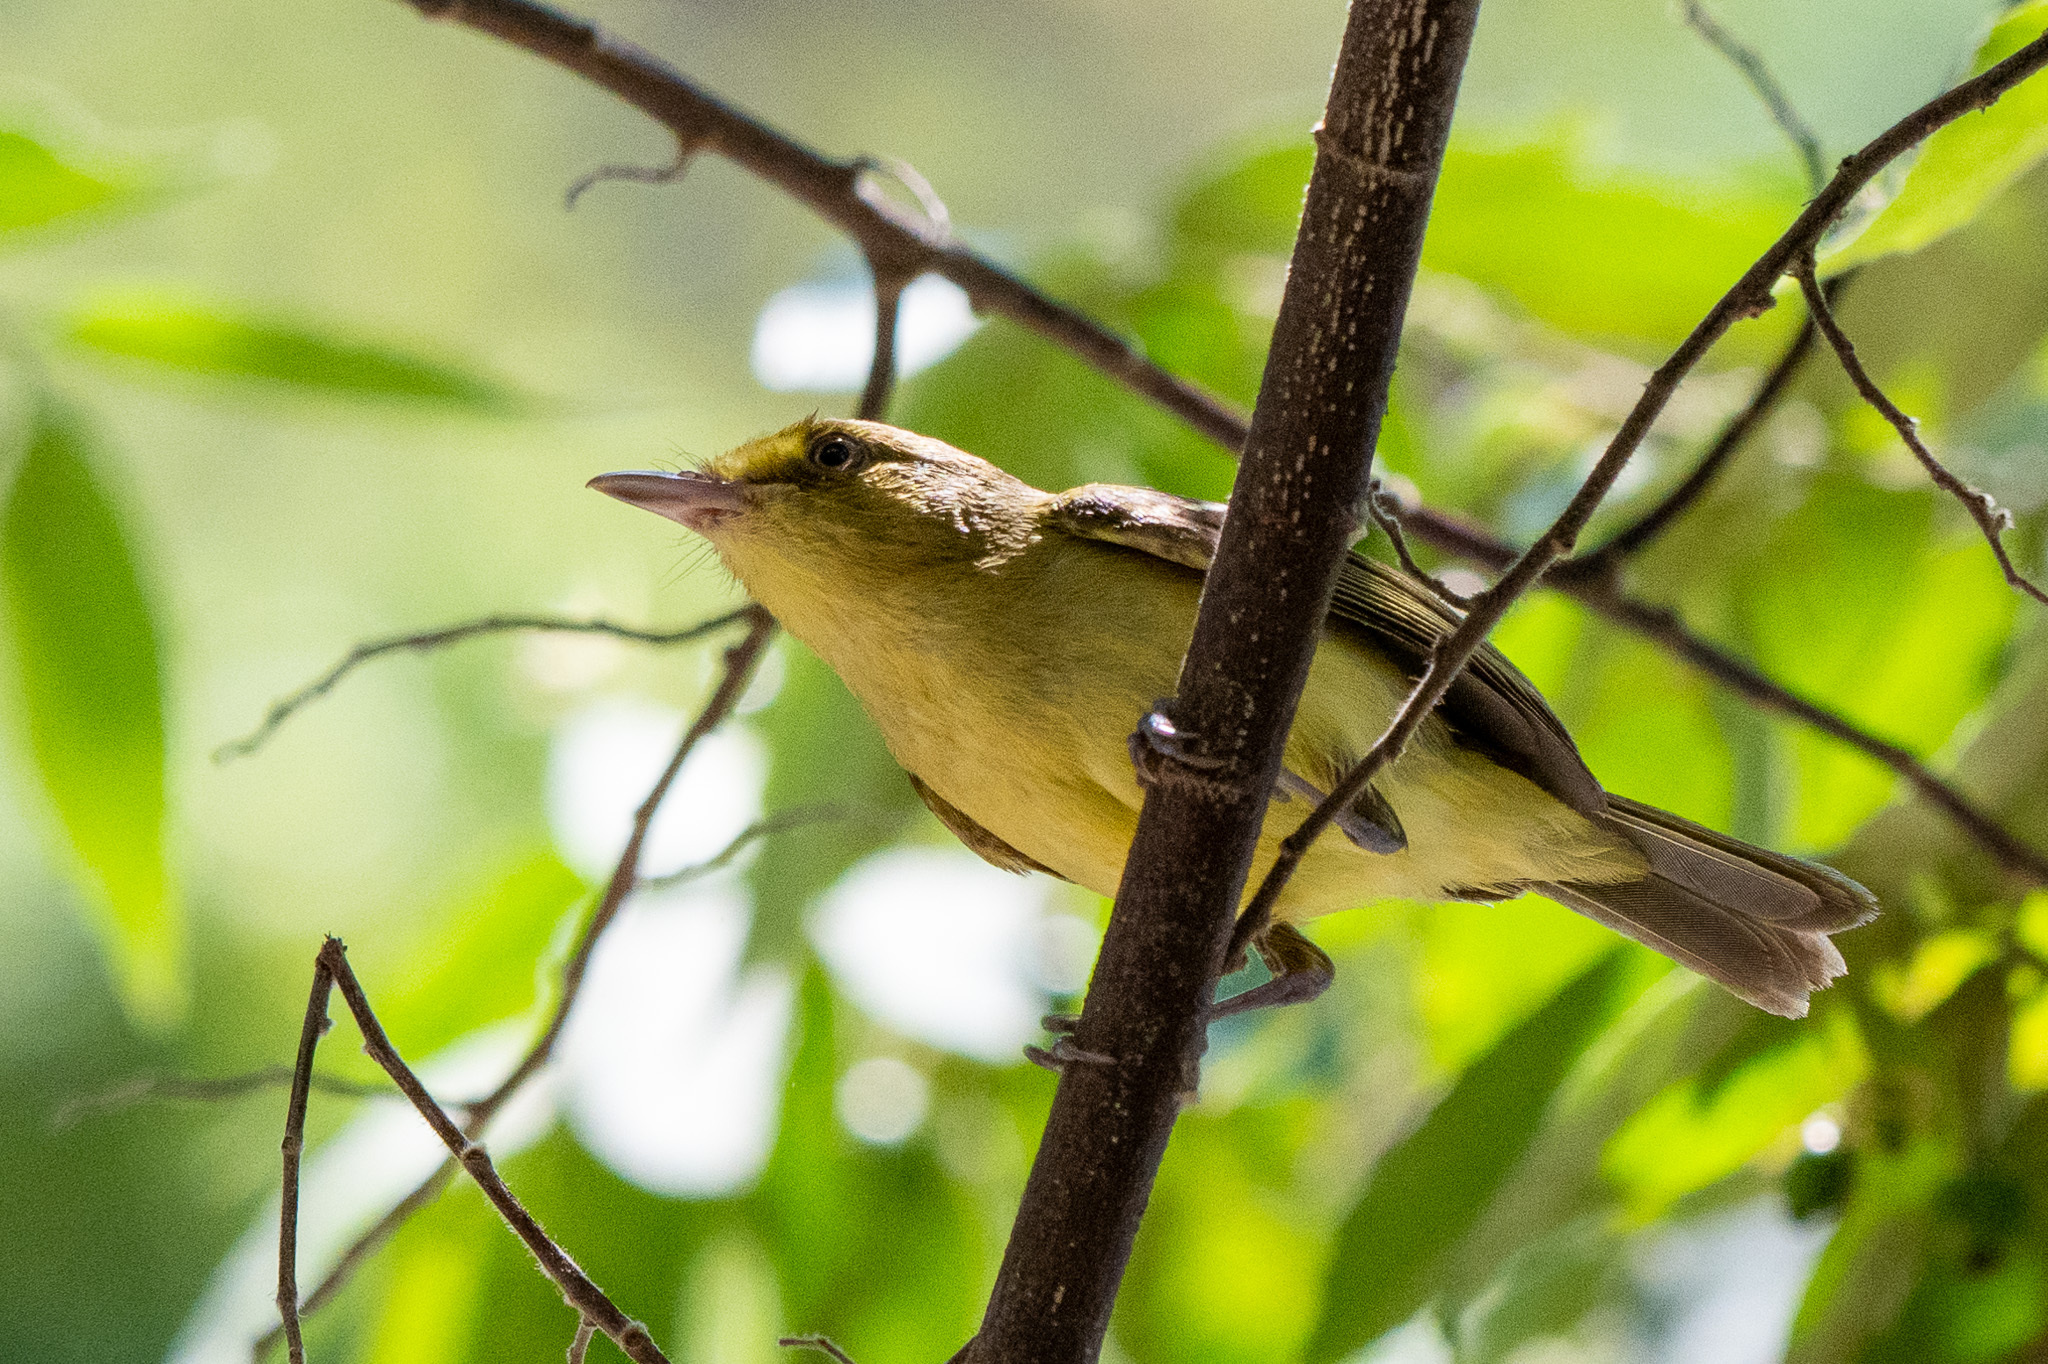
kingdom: Animalia
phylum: Chordata
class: Aves
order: Passeriformes
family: Vireonidae
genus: Vireo
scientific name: Vireo pallens
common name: Mangrove vireo
